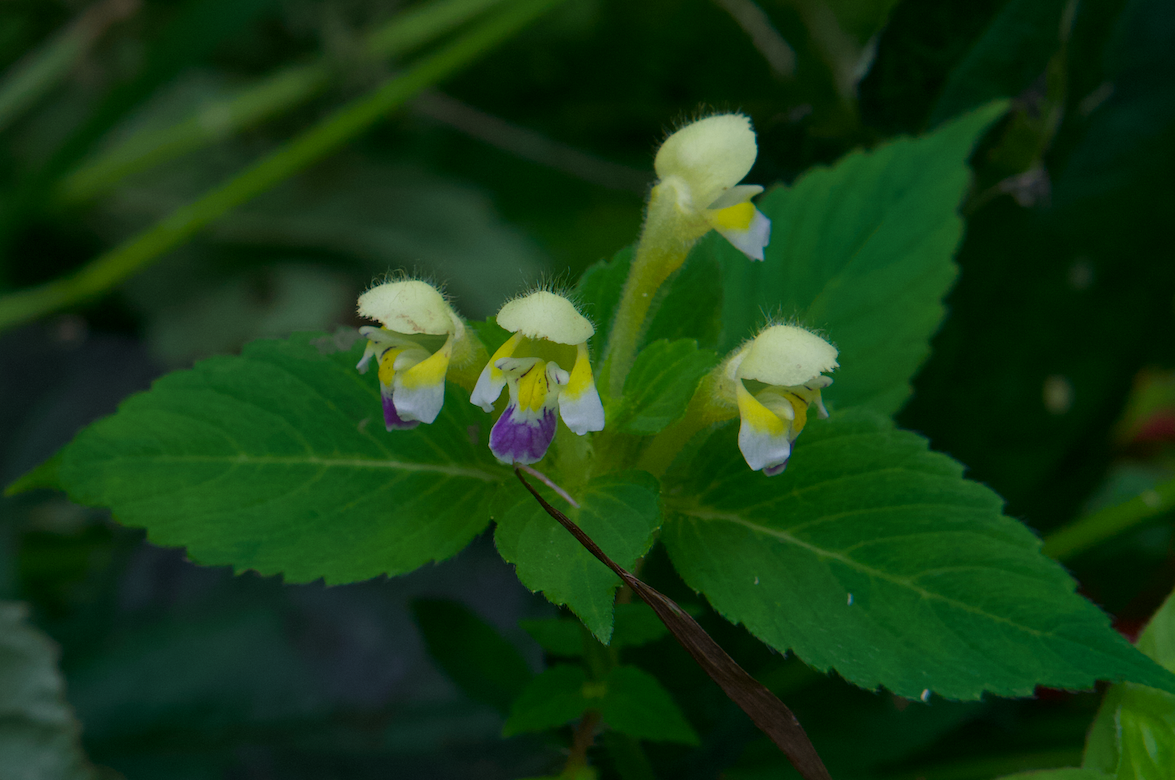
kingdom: Plantae
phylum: Tracheophyta
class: Magnoliopsida
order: Lamiales
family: Lamiaceae
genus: Galeopsis
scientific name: Galeopsis speciosa
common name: Large-flowered hemp-nettle
